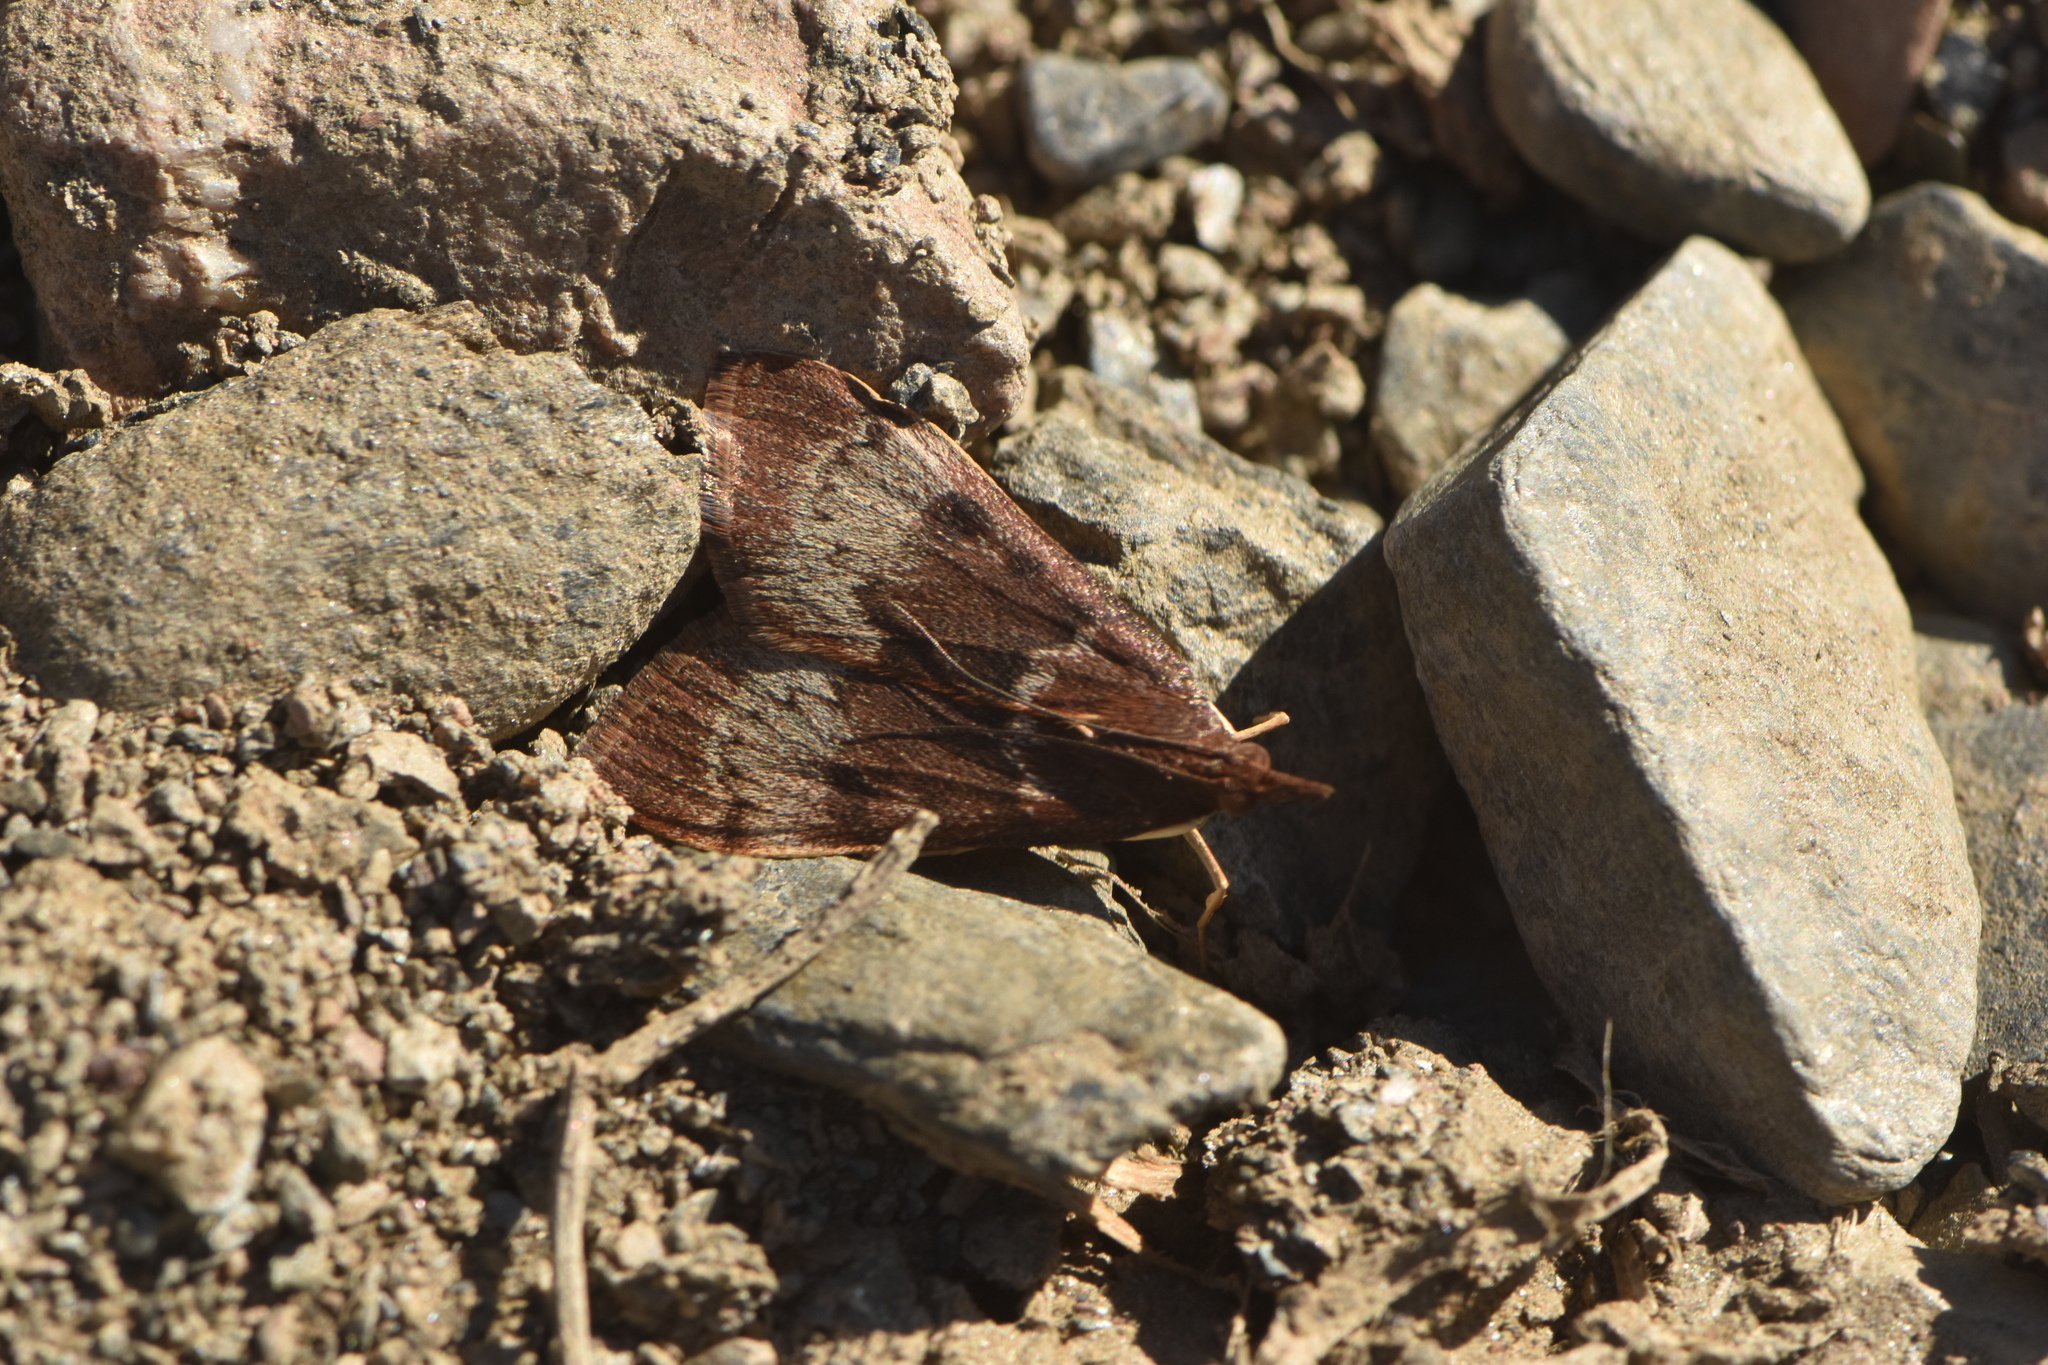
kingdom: Animalia
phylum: Arthropoda
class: Insecta
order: Lepidoptera
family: Crambidae
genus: Uresiphita
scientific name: Uresiphita gilvata
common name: Yellow-underwing pearl
